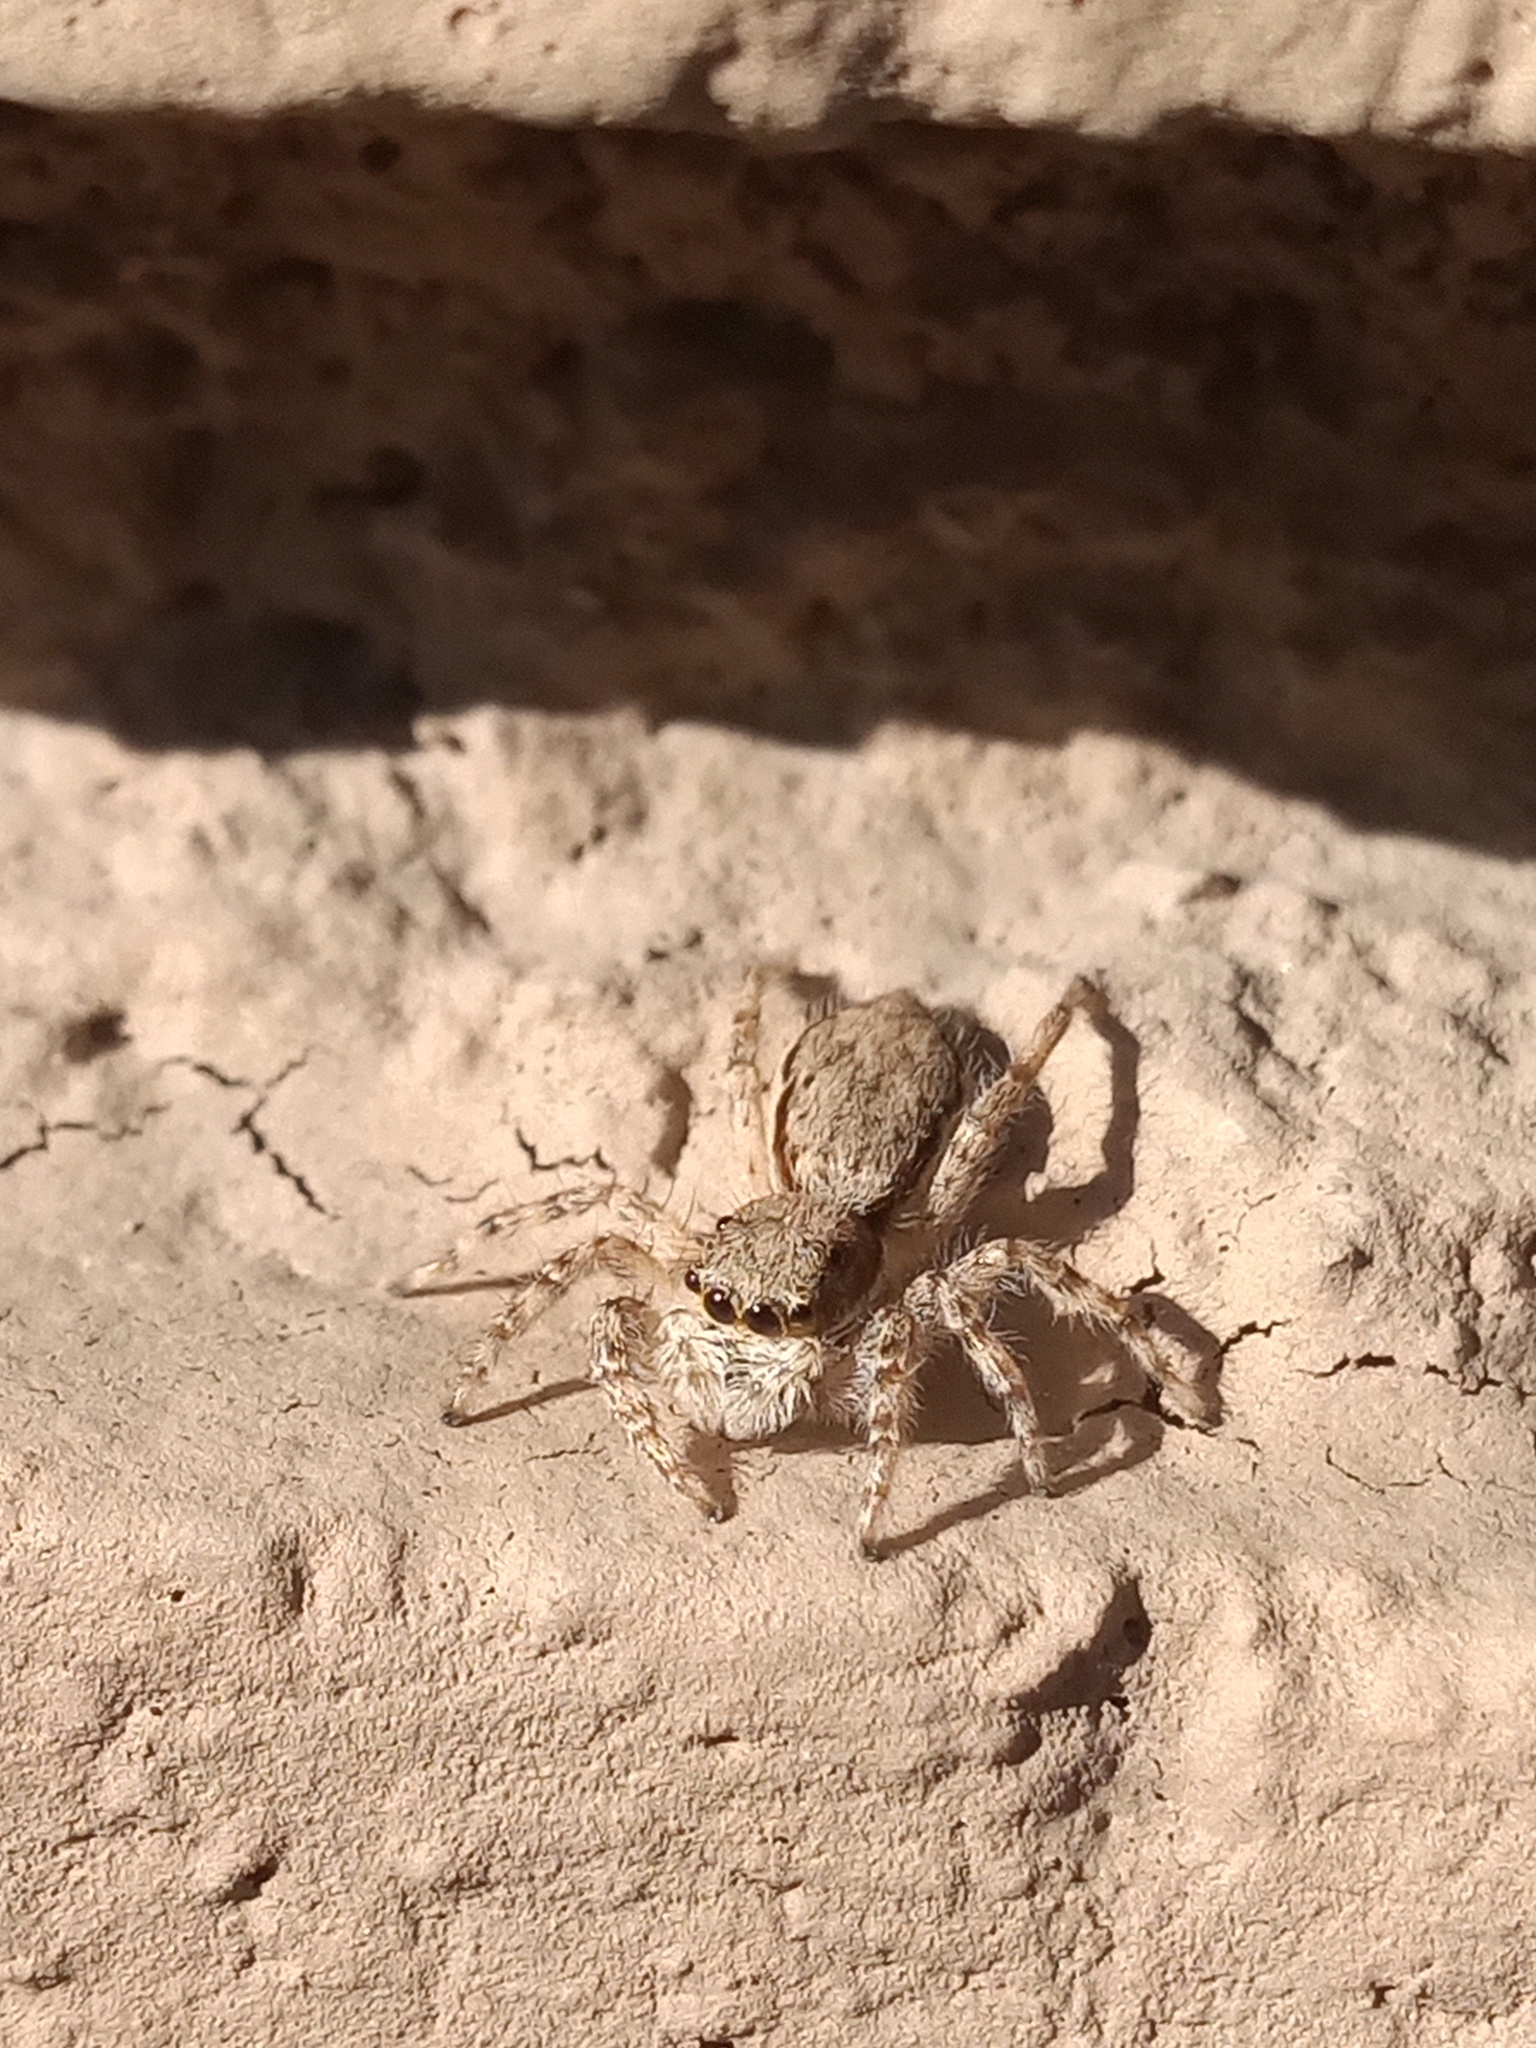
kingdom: Animalia
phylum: Arthropoda
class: Arachnida
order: Araneae
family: Salticidae
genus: Menemerus
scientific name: Menemerus bivittatus
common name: Gray wall jumper
